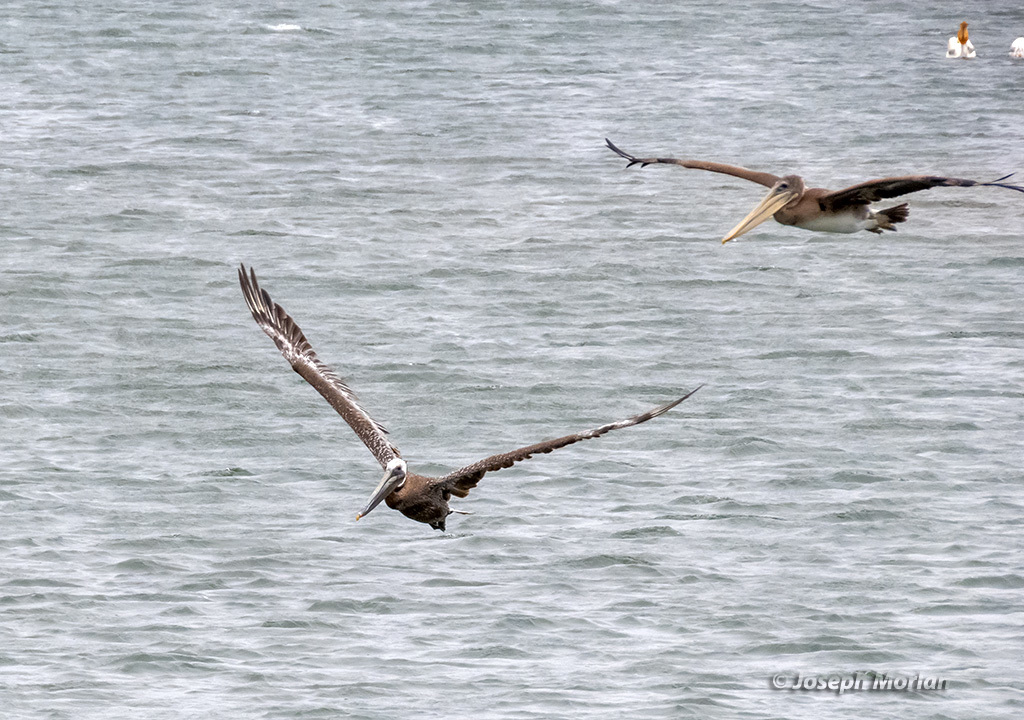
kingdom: Animalia
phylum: Chordata
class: Aves
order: Pelecaniformes
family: Pelecanidae
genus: Pelecanus
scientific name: Pelecanus occidentalis
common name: Brown pelican
